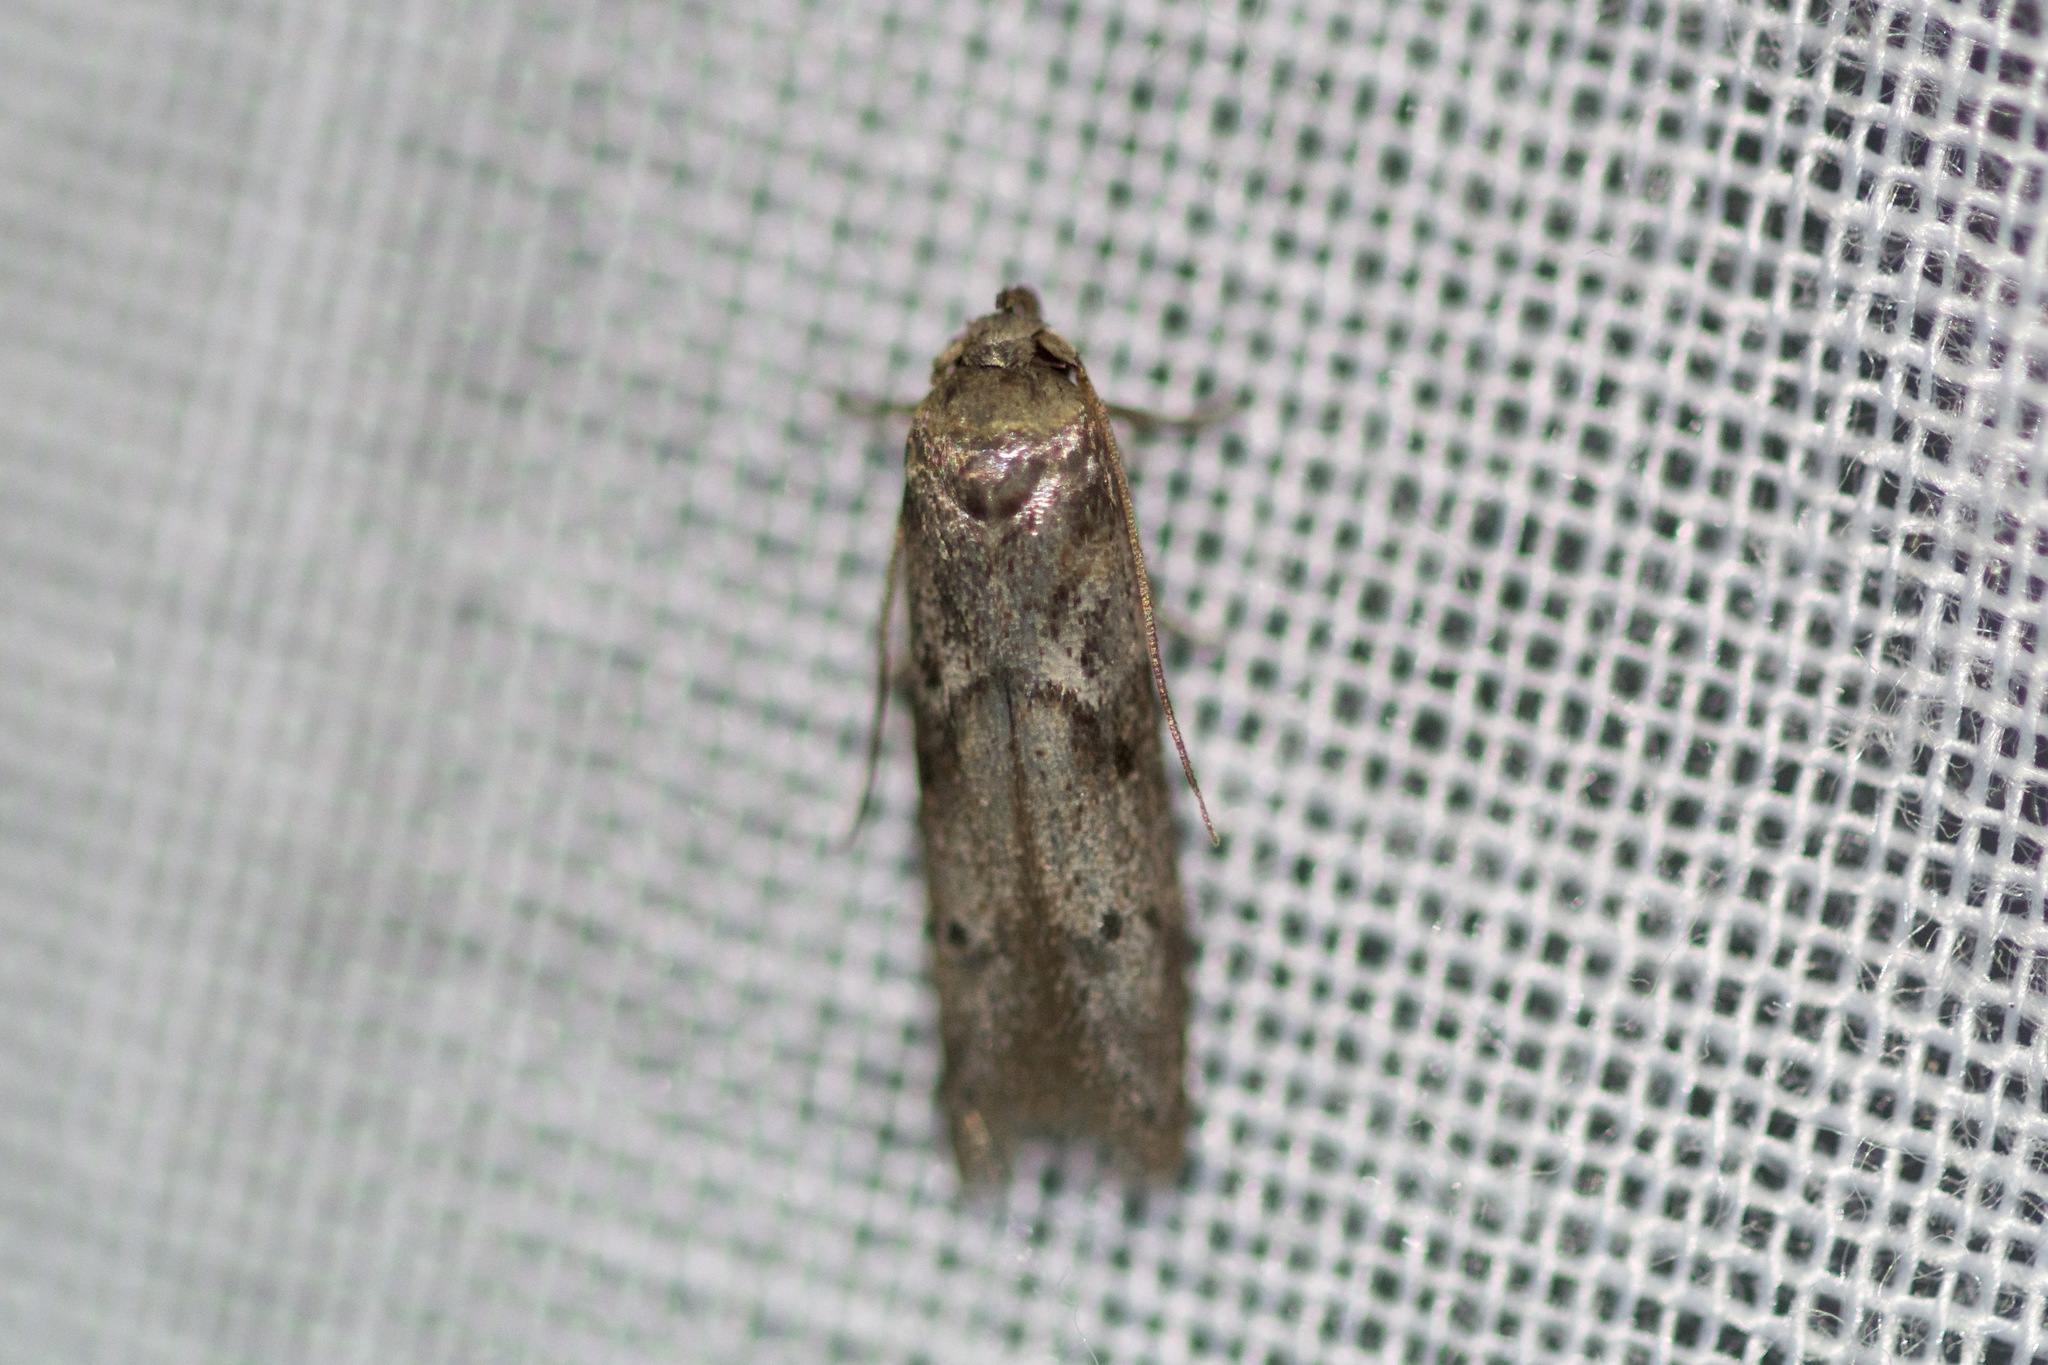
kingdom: Animalia
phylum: Arthropoda
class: Insecta
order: Lepidoptera
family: Blastobasidae
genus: Blastobasis
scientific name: Blastobasis glandulella
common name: Acorn moth
